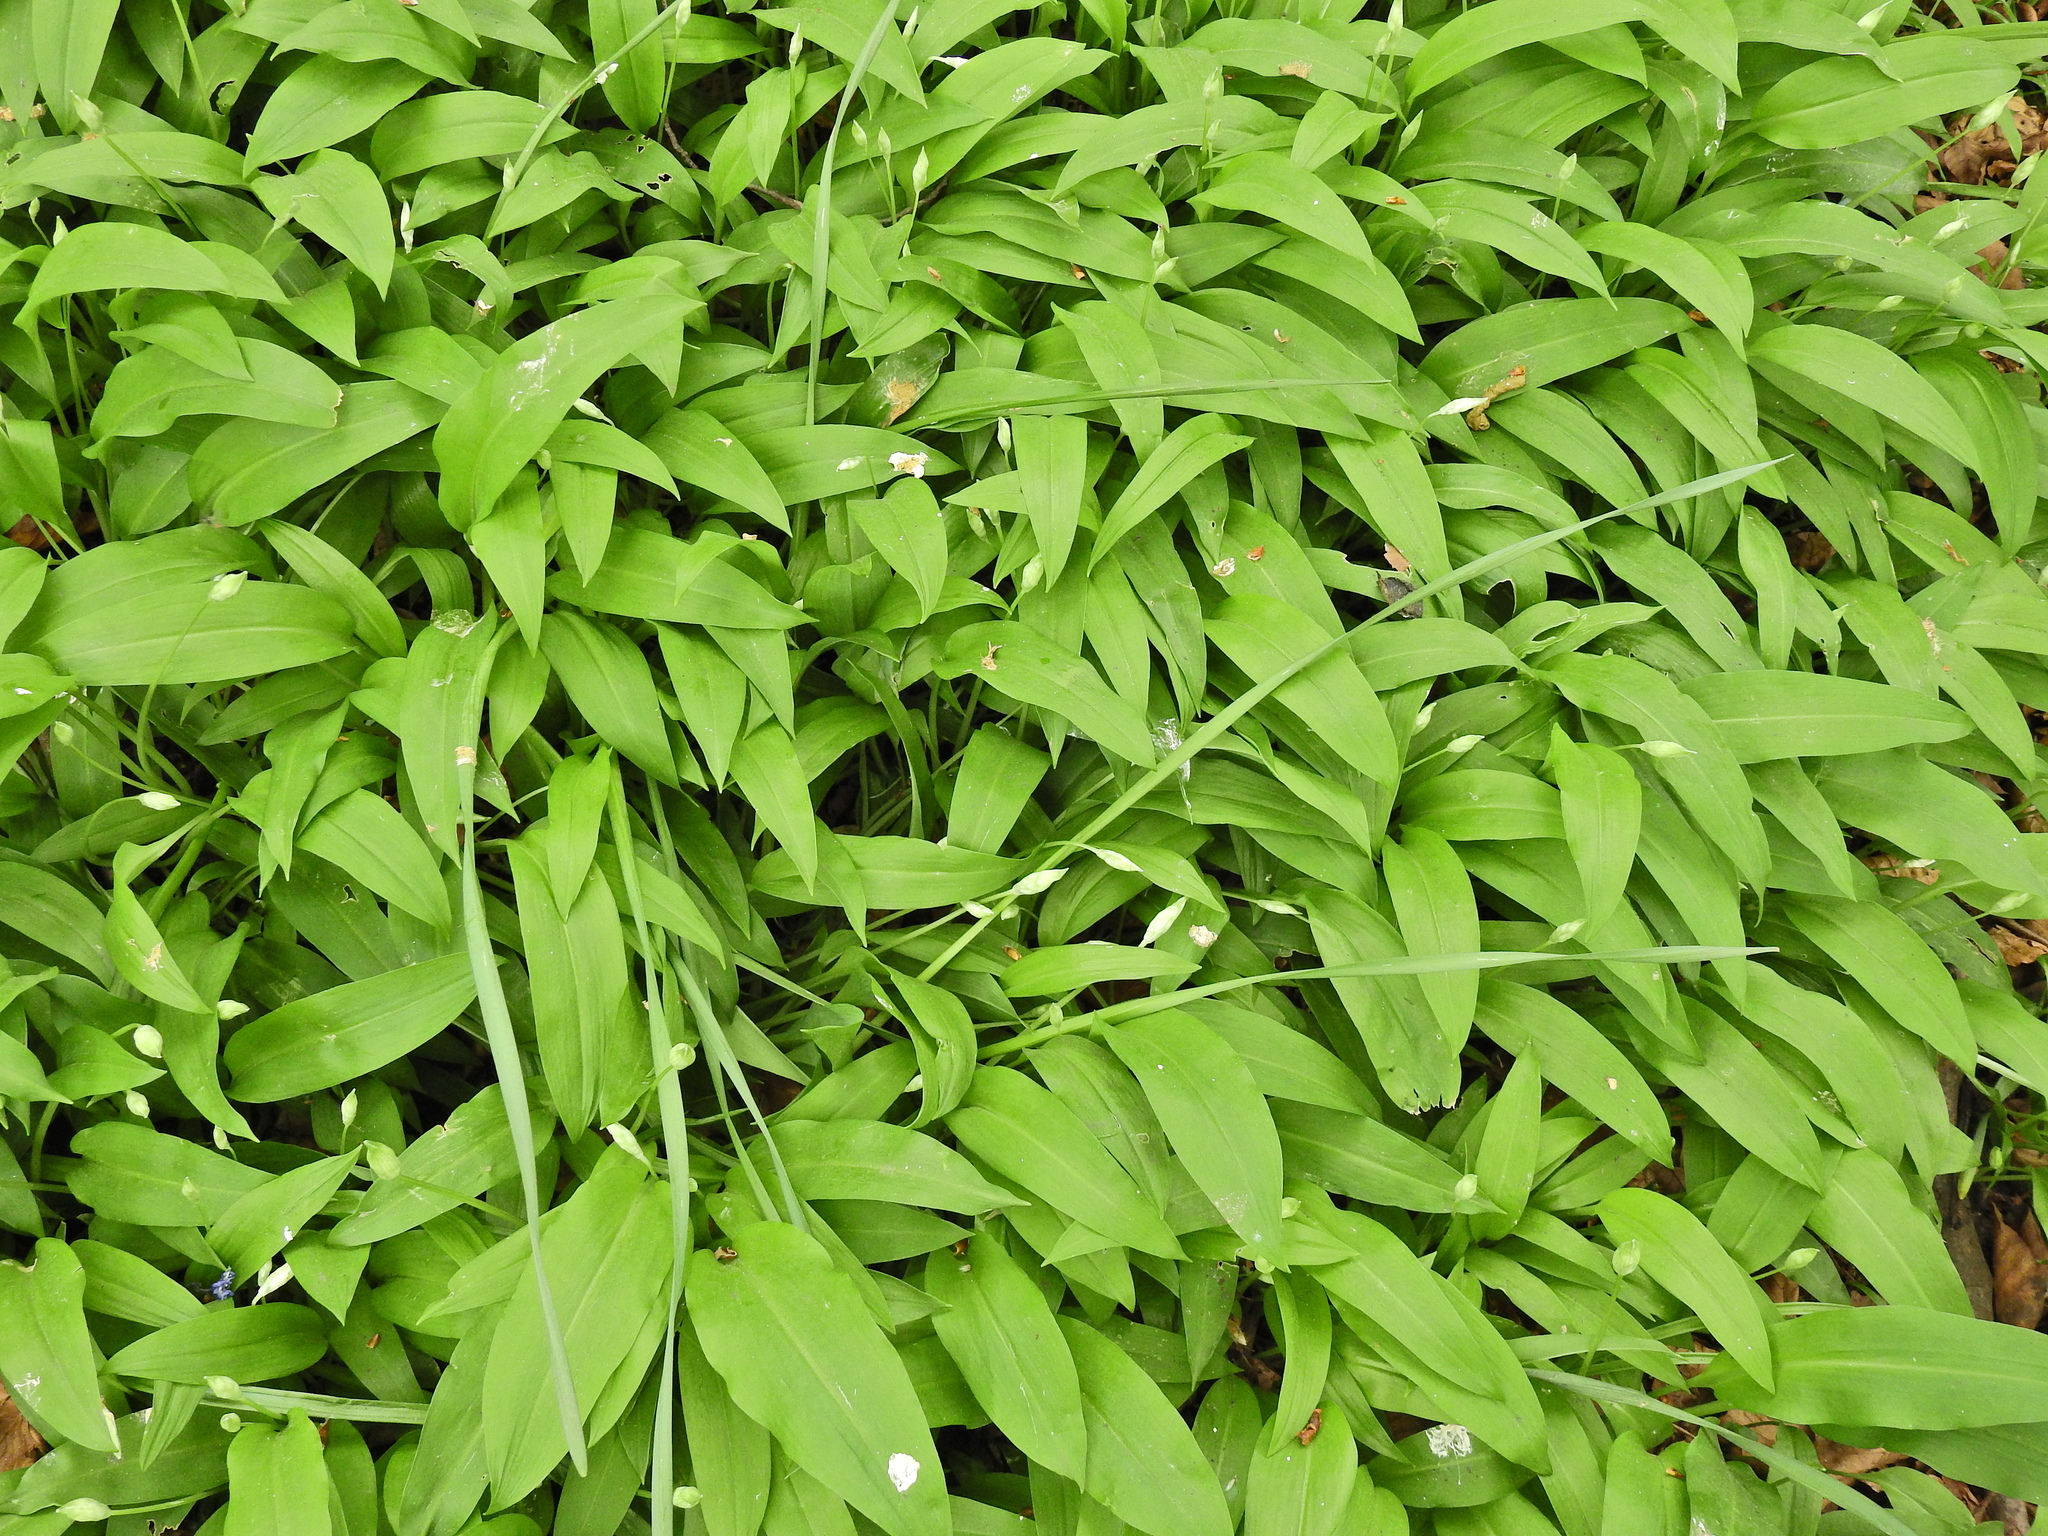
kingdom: Plantae
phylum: Tracheophyta
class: Liliopsida
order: Asparagales
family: Amaryllidaceae
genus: Allium
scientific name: Allium ursinum
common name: Ramsons
